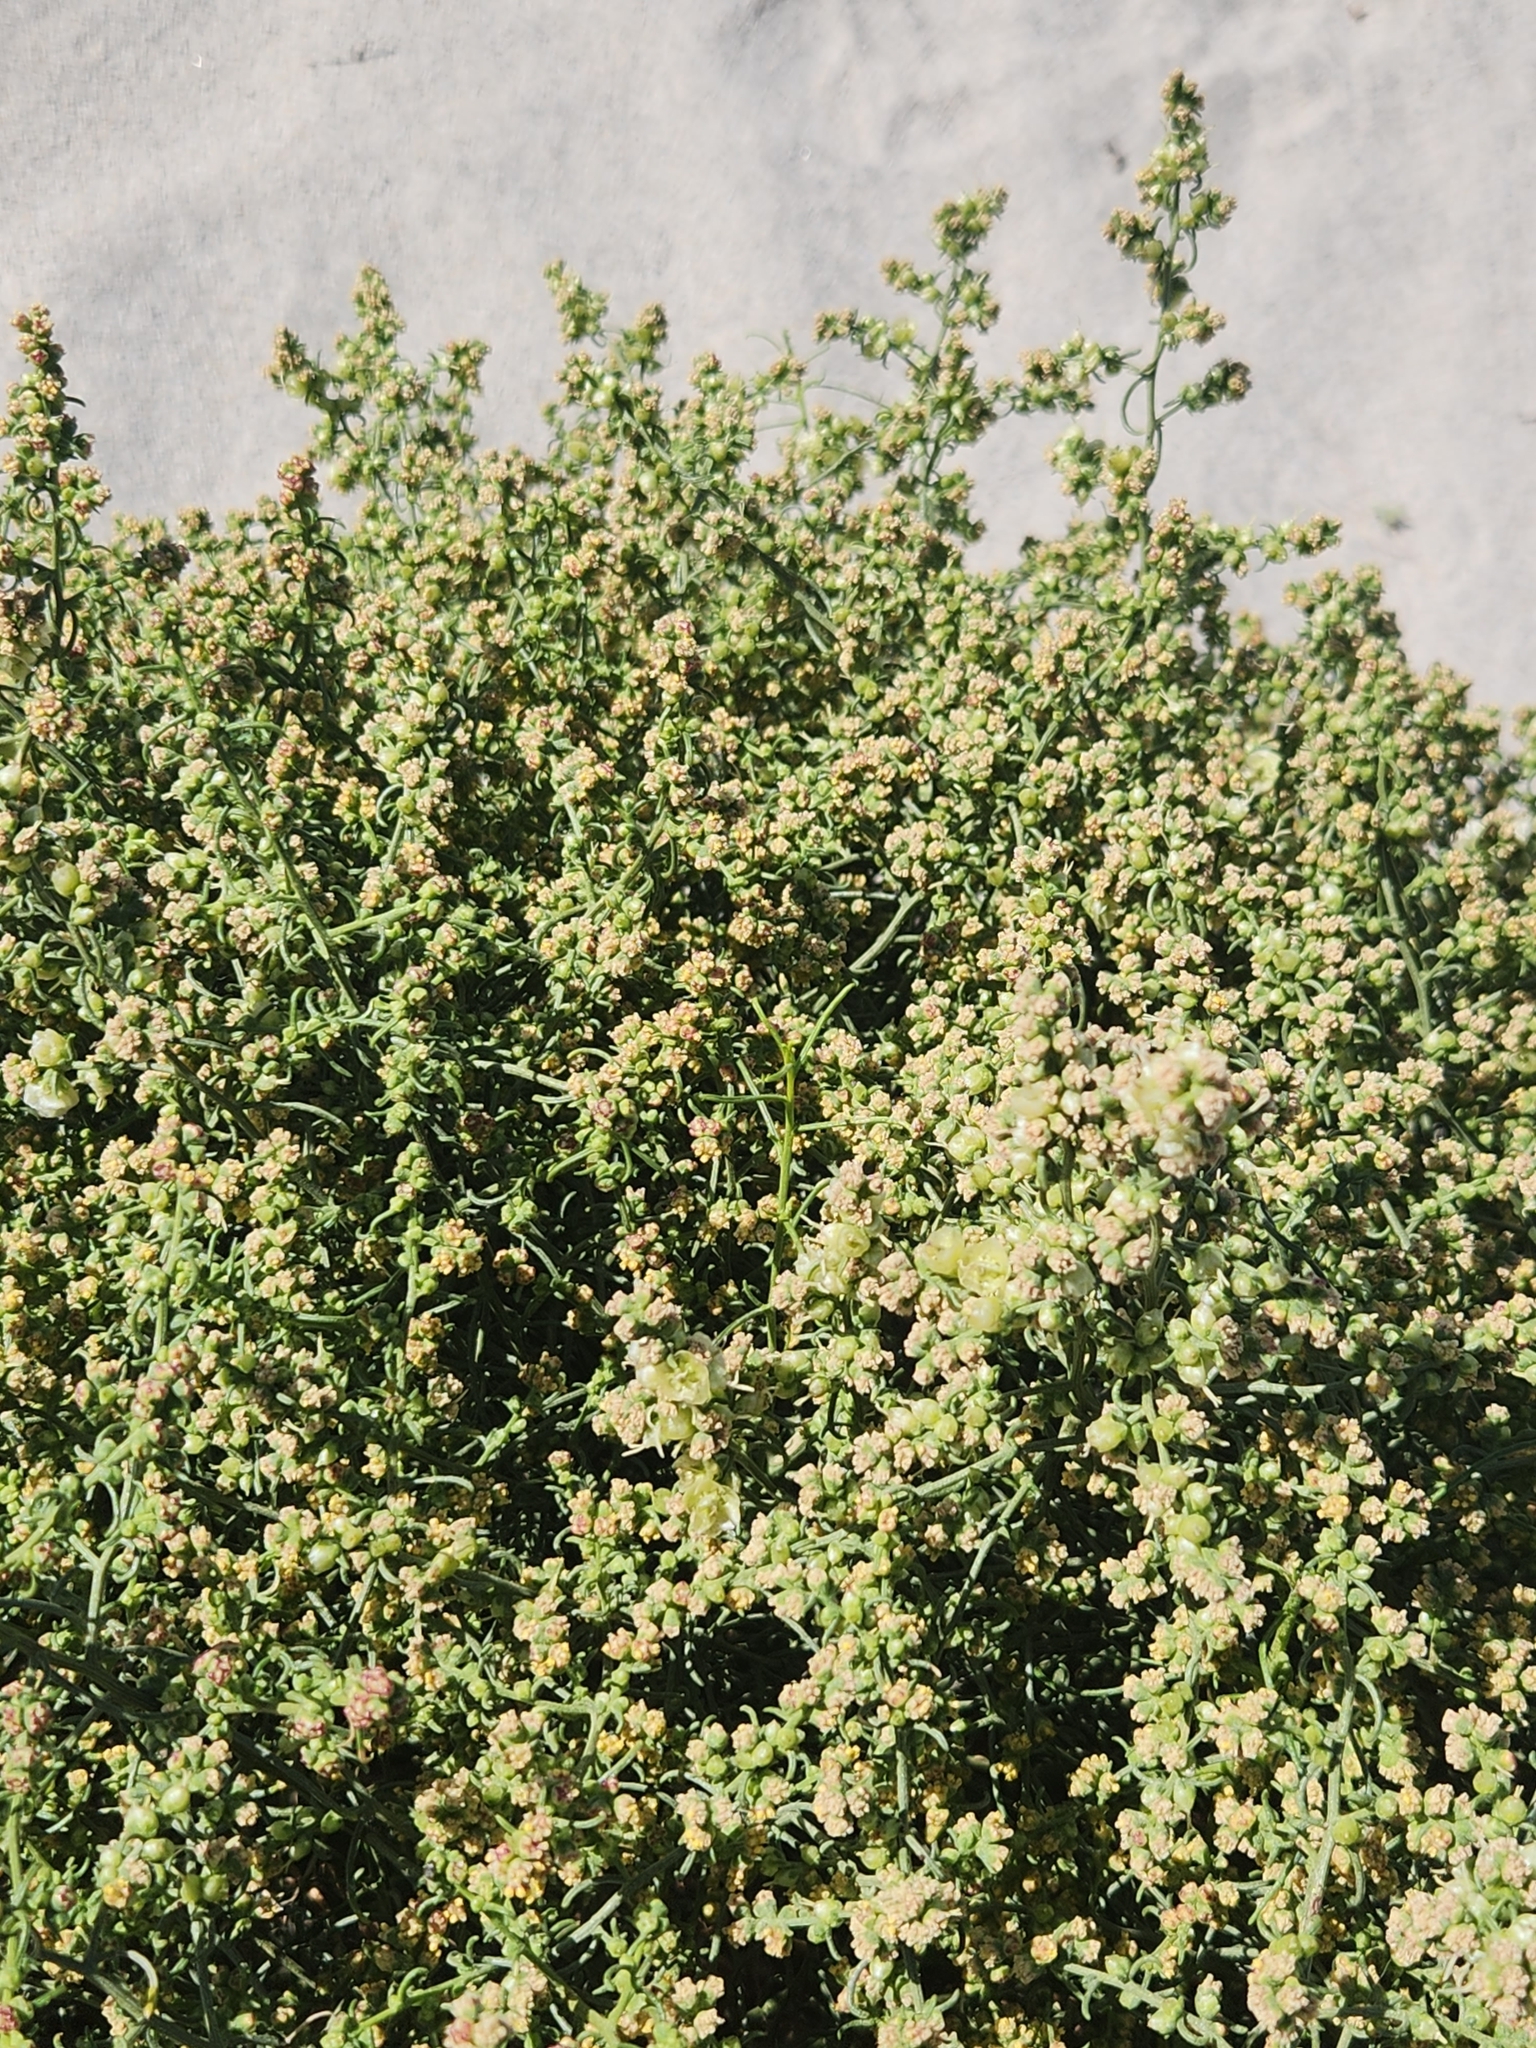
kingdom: Plantae
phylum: Tracheophyta
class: Magnoliopsida
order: Asterales
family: Asteraceae
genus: Ambrosia
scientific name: Ambrosia salsola
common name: Burrobrush
